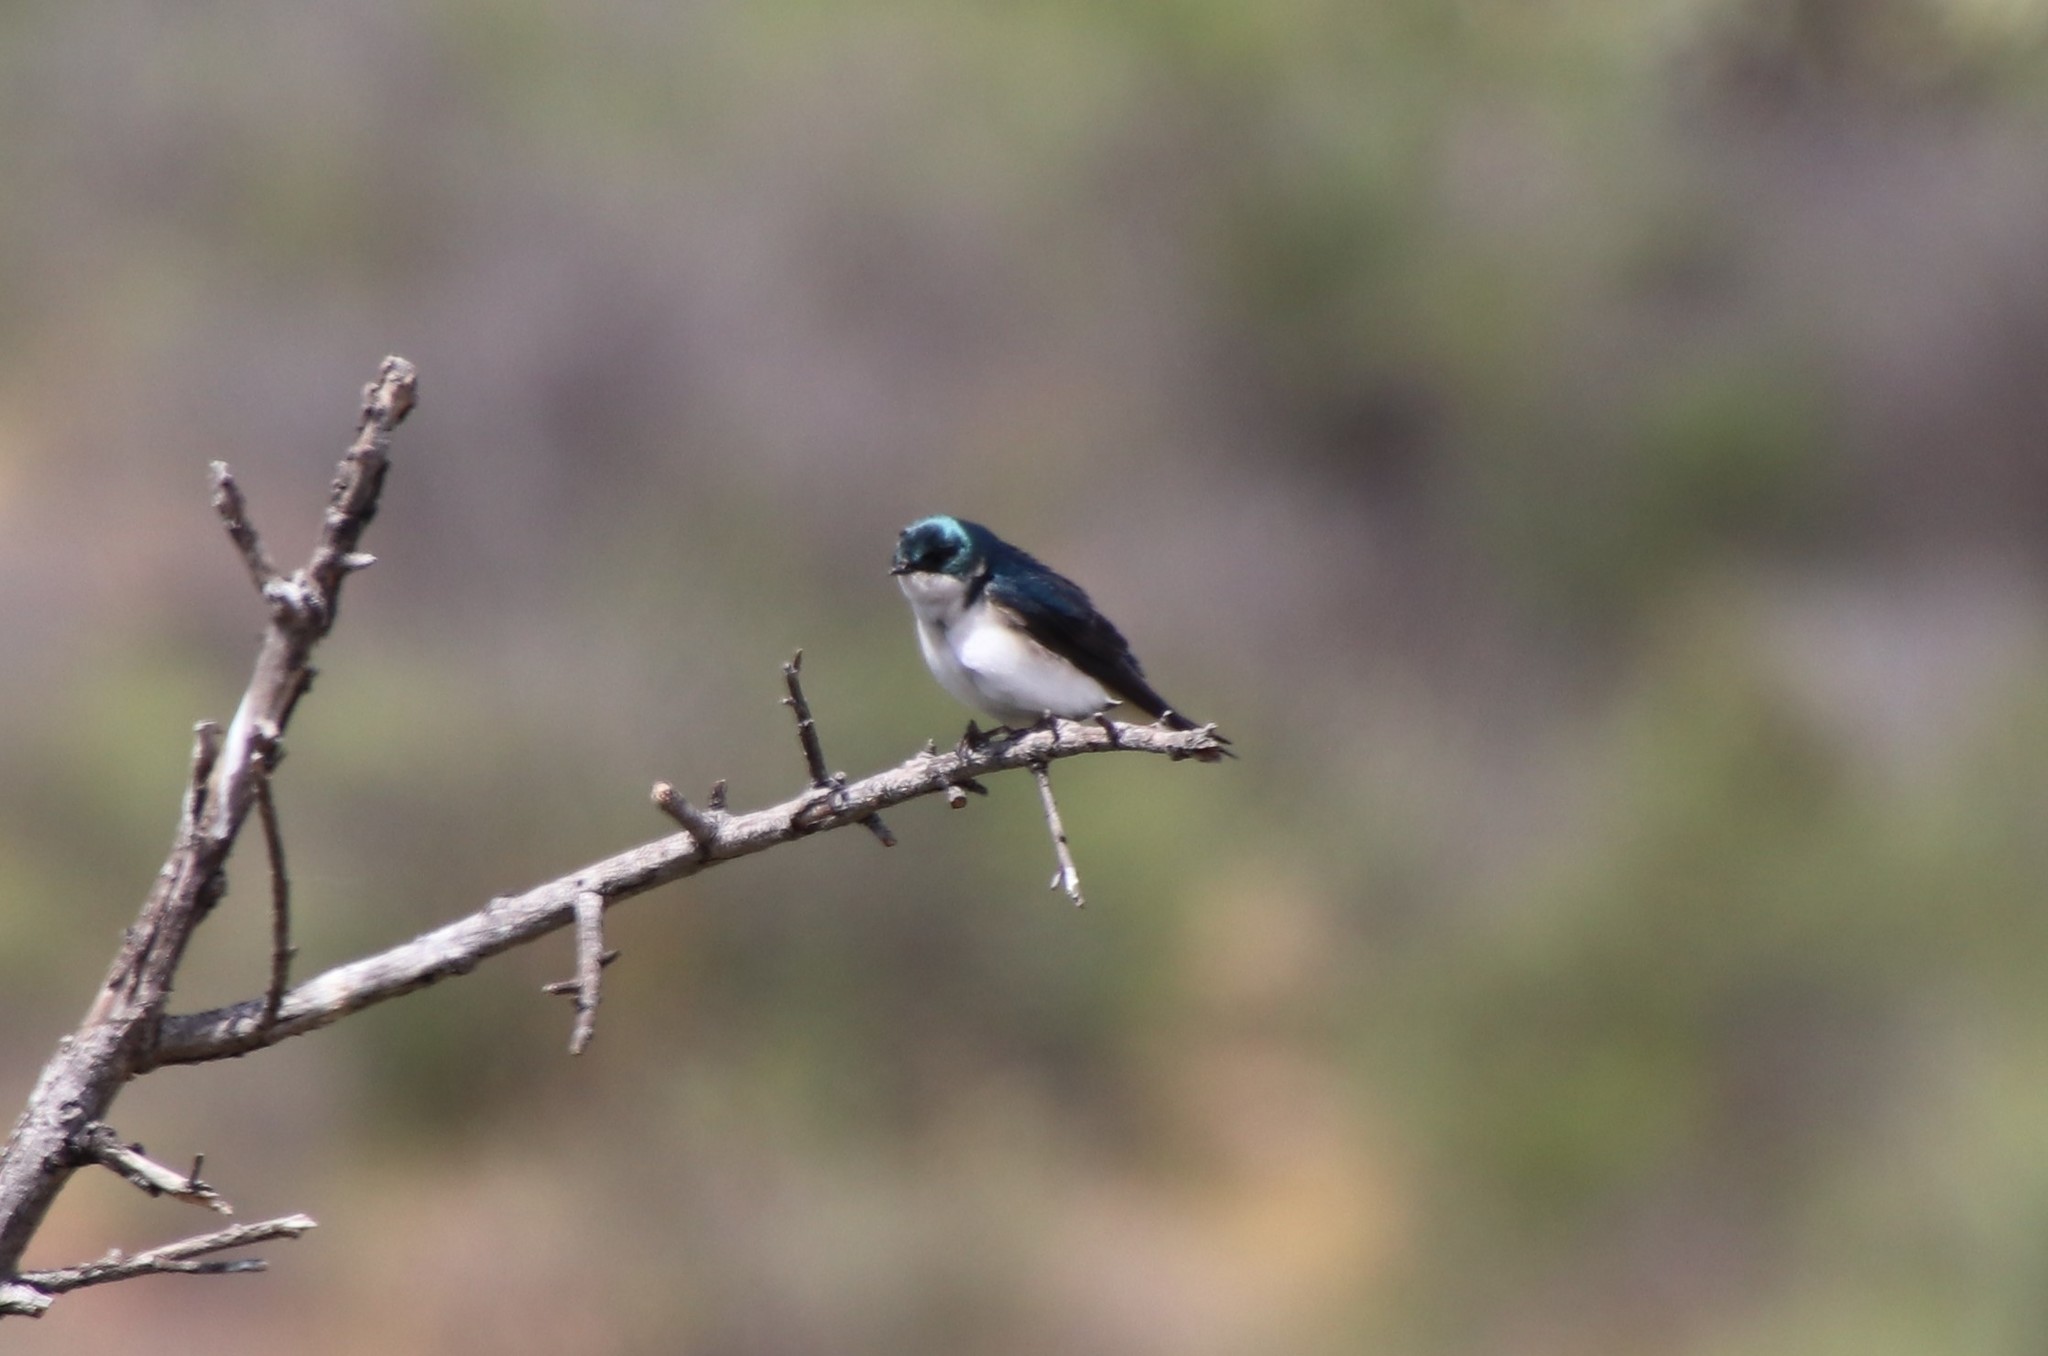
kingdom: Animalia
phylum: Chordata
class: Aves
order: Passeriformes
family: Hirundinidae
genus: Tachycineta
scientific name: Tachycineta bicolor
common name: Tree swallow
